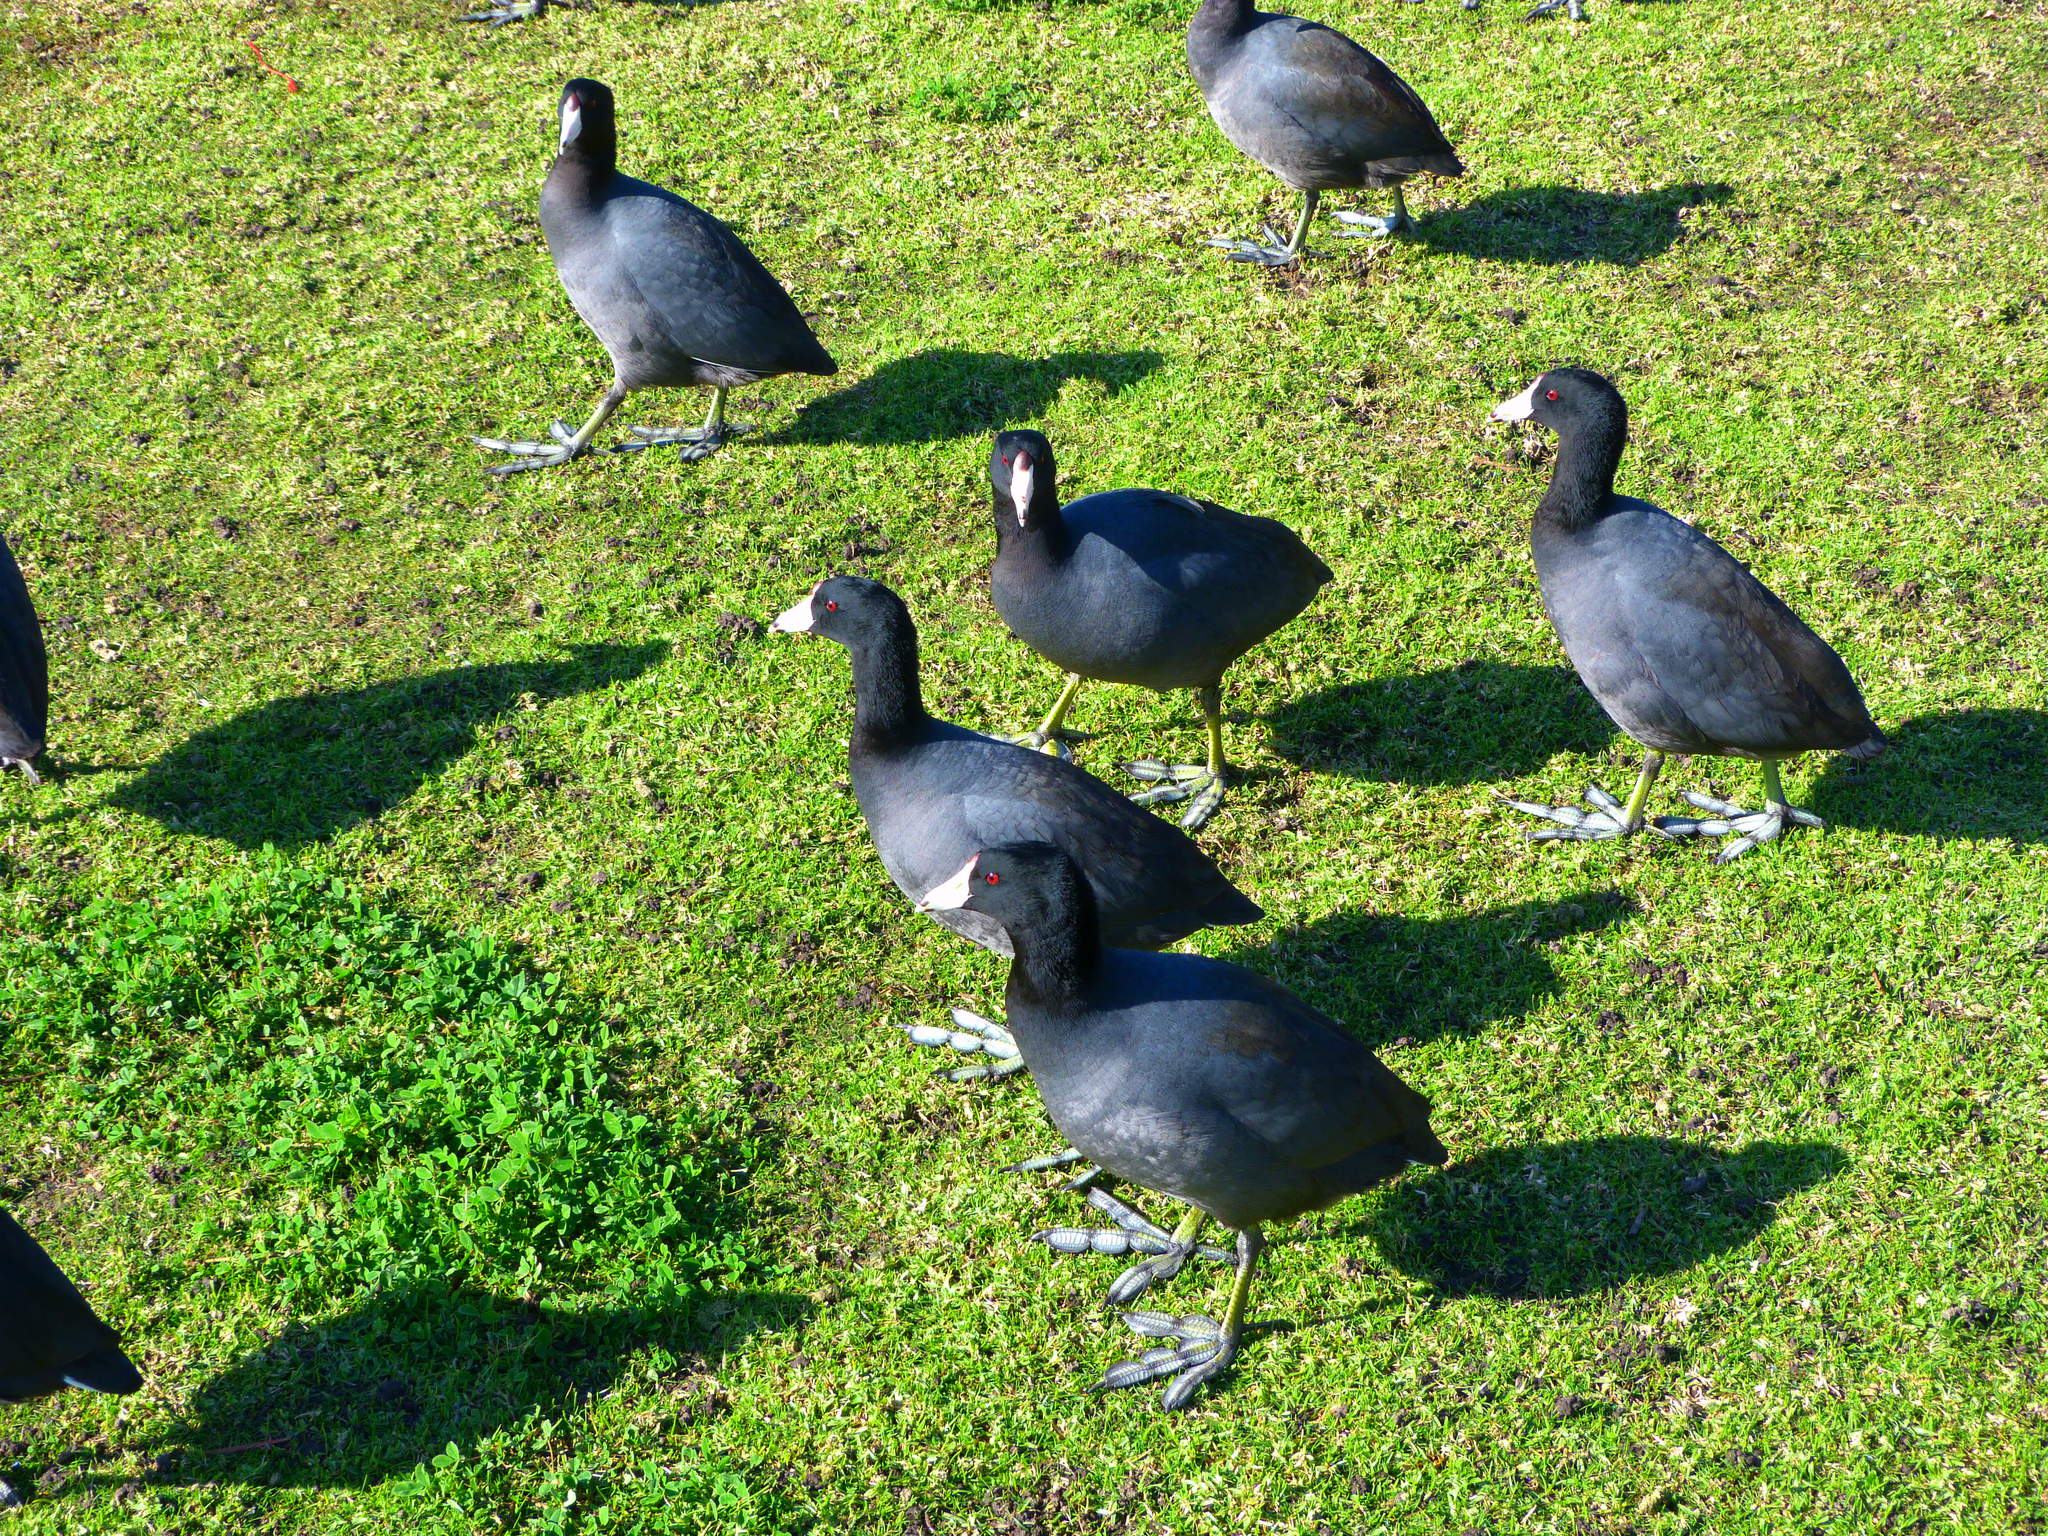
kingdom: Animalia
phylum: Chordata
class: Aves
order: Gruiformes
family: Rallidae
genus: Fulica
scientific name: Fulica americana
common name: American coot
